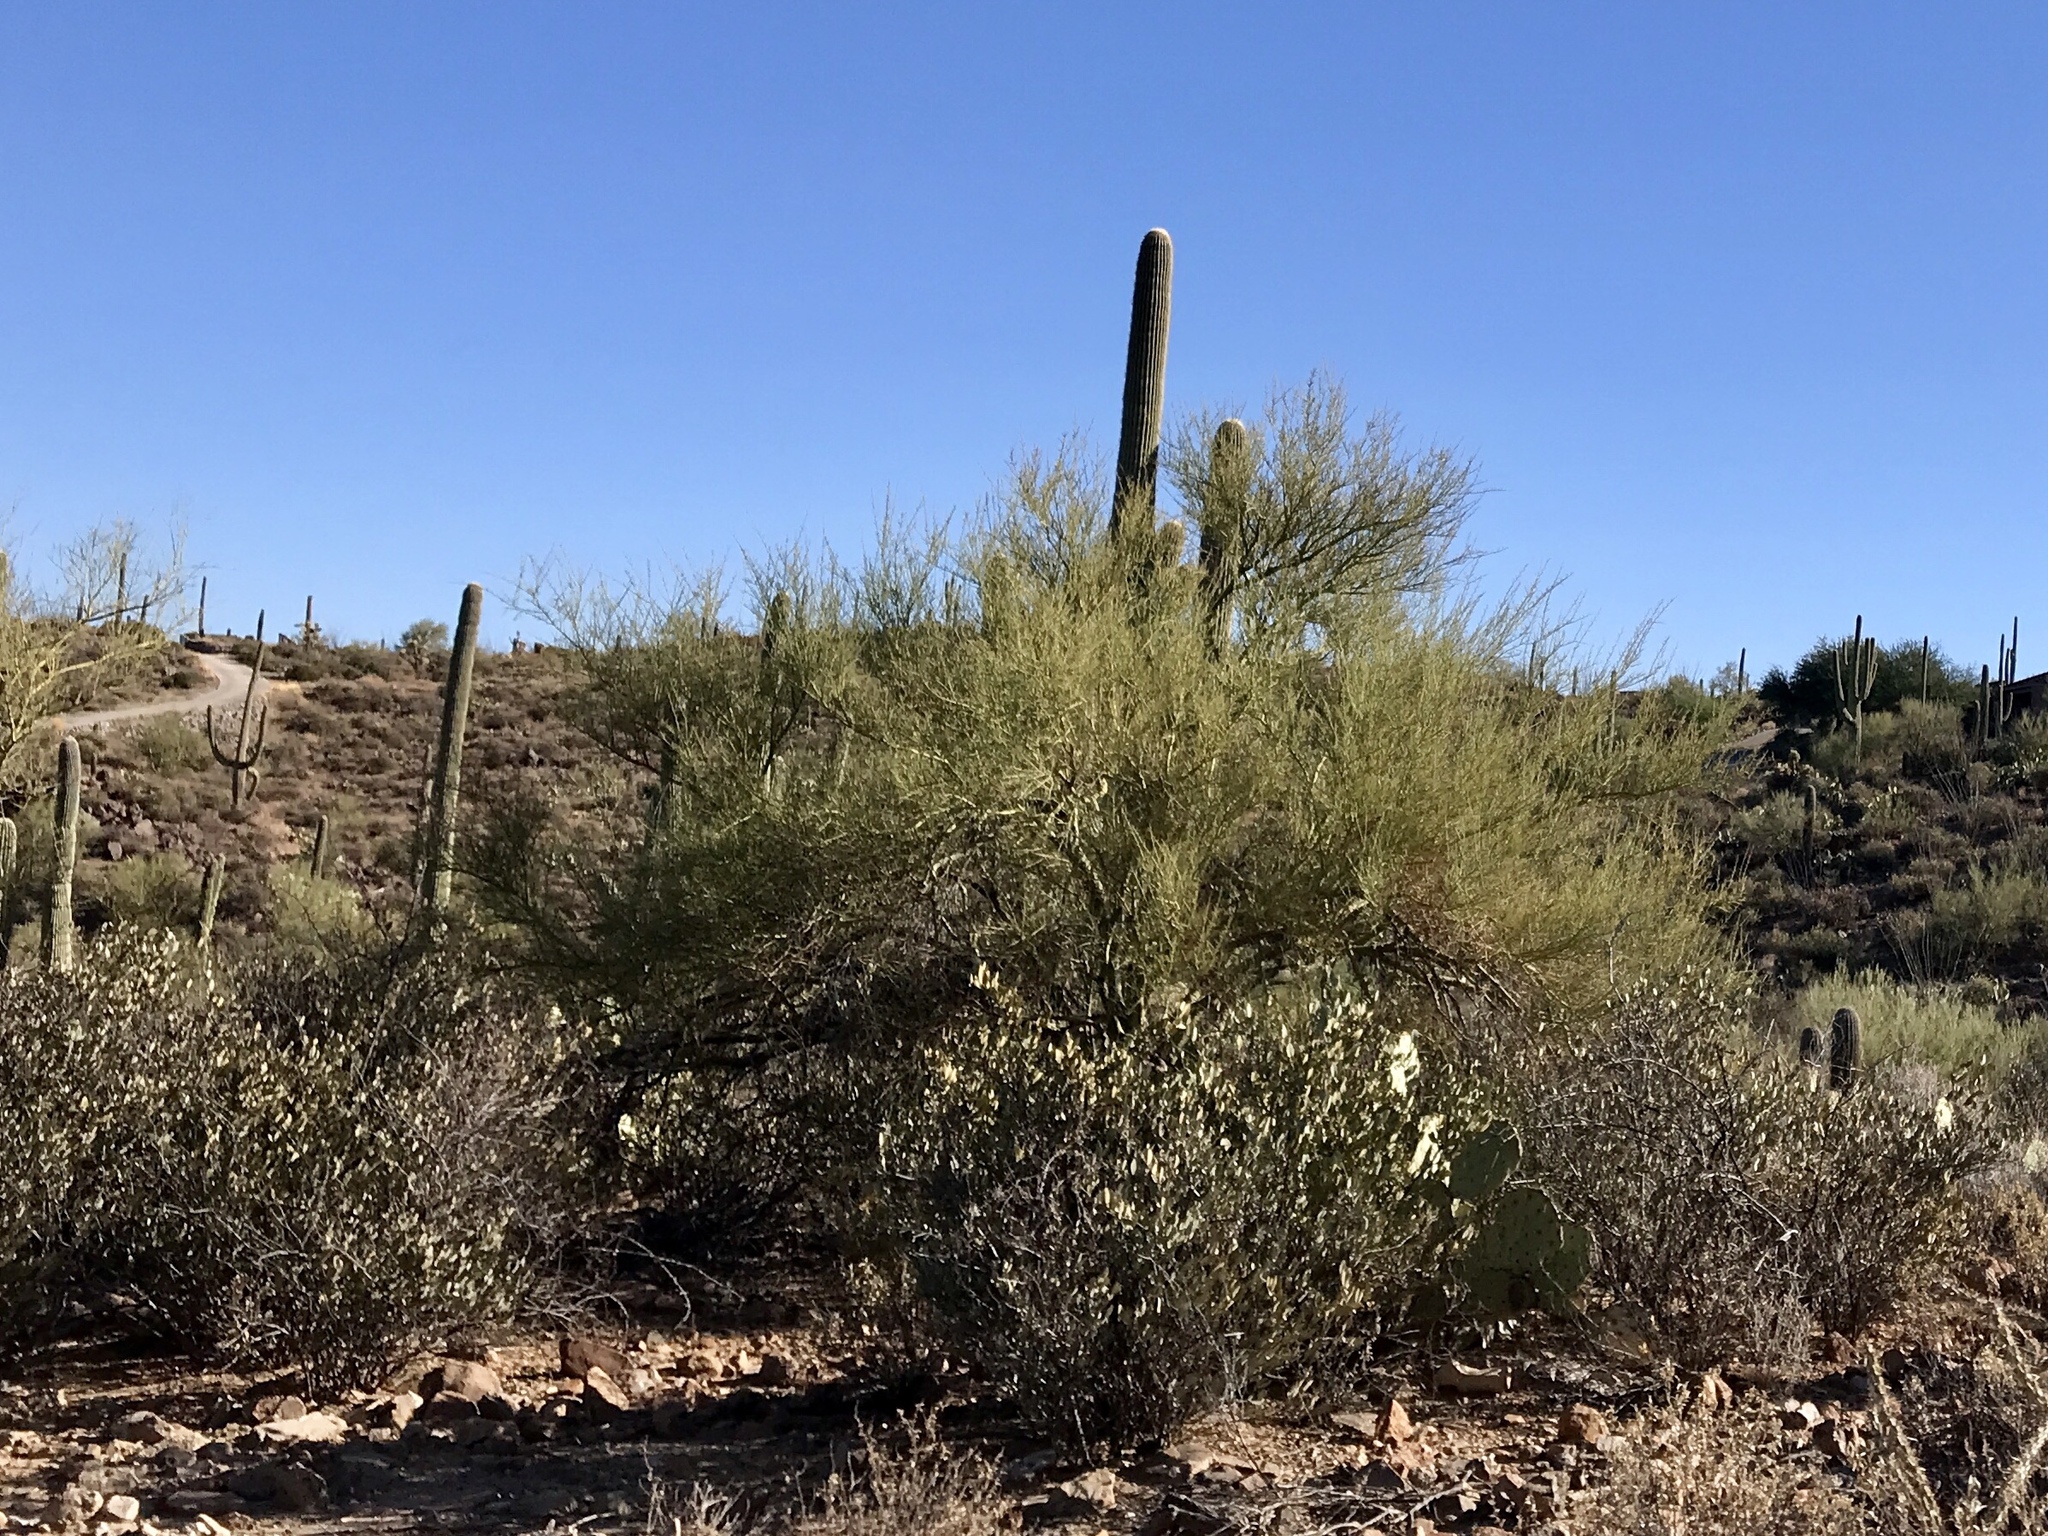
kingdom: Plantae
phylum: Tracheophyta
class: Magnoliopsida
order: Fabales
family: Fabaceae
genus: Parkinsonia
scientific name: Parkinsonia microphylla
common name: Yellow paloverde
